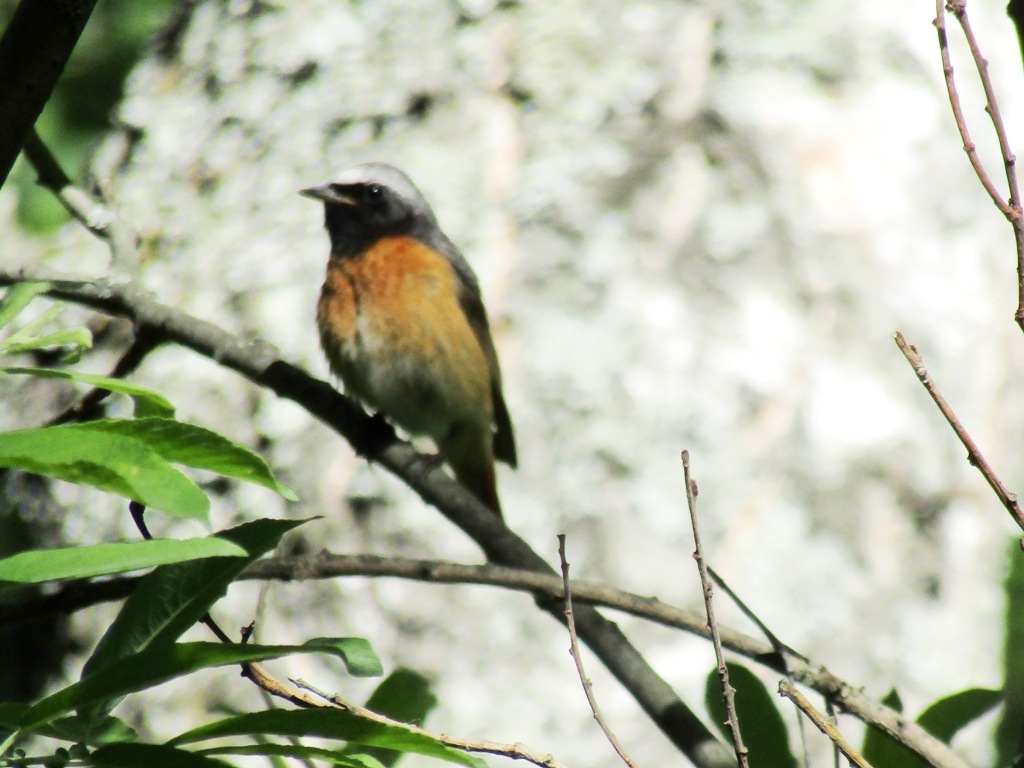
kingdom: Animalia
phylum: Chordata
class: Aves
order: Passeriformes
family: Muscicapidae
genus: Phoenicurus
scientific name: Phoenicurus phoenicurus
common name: Common redstart
